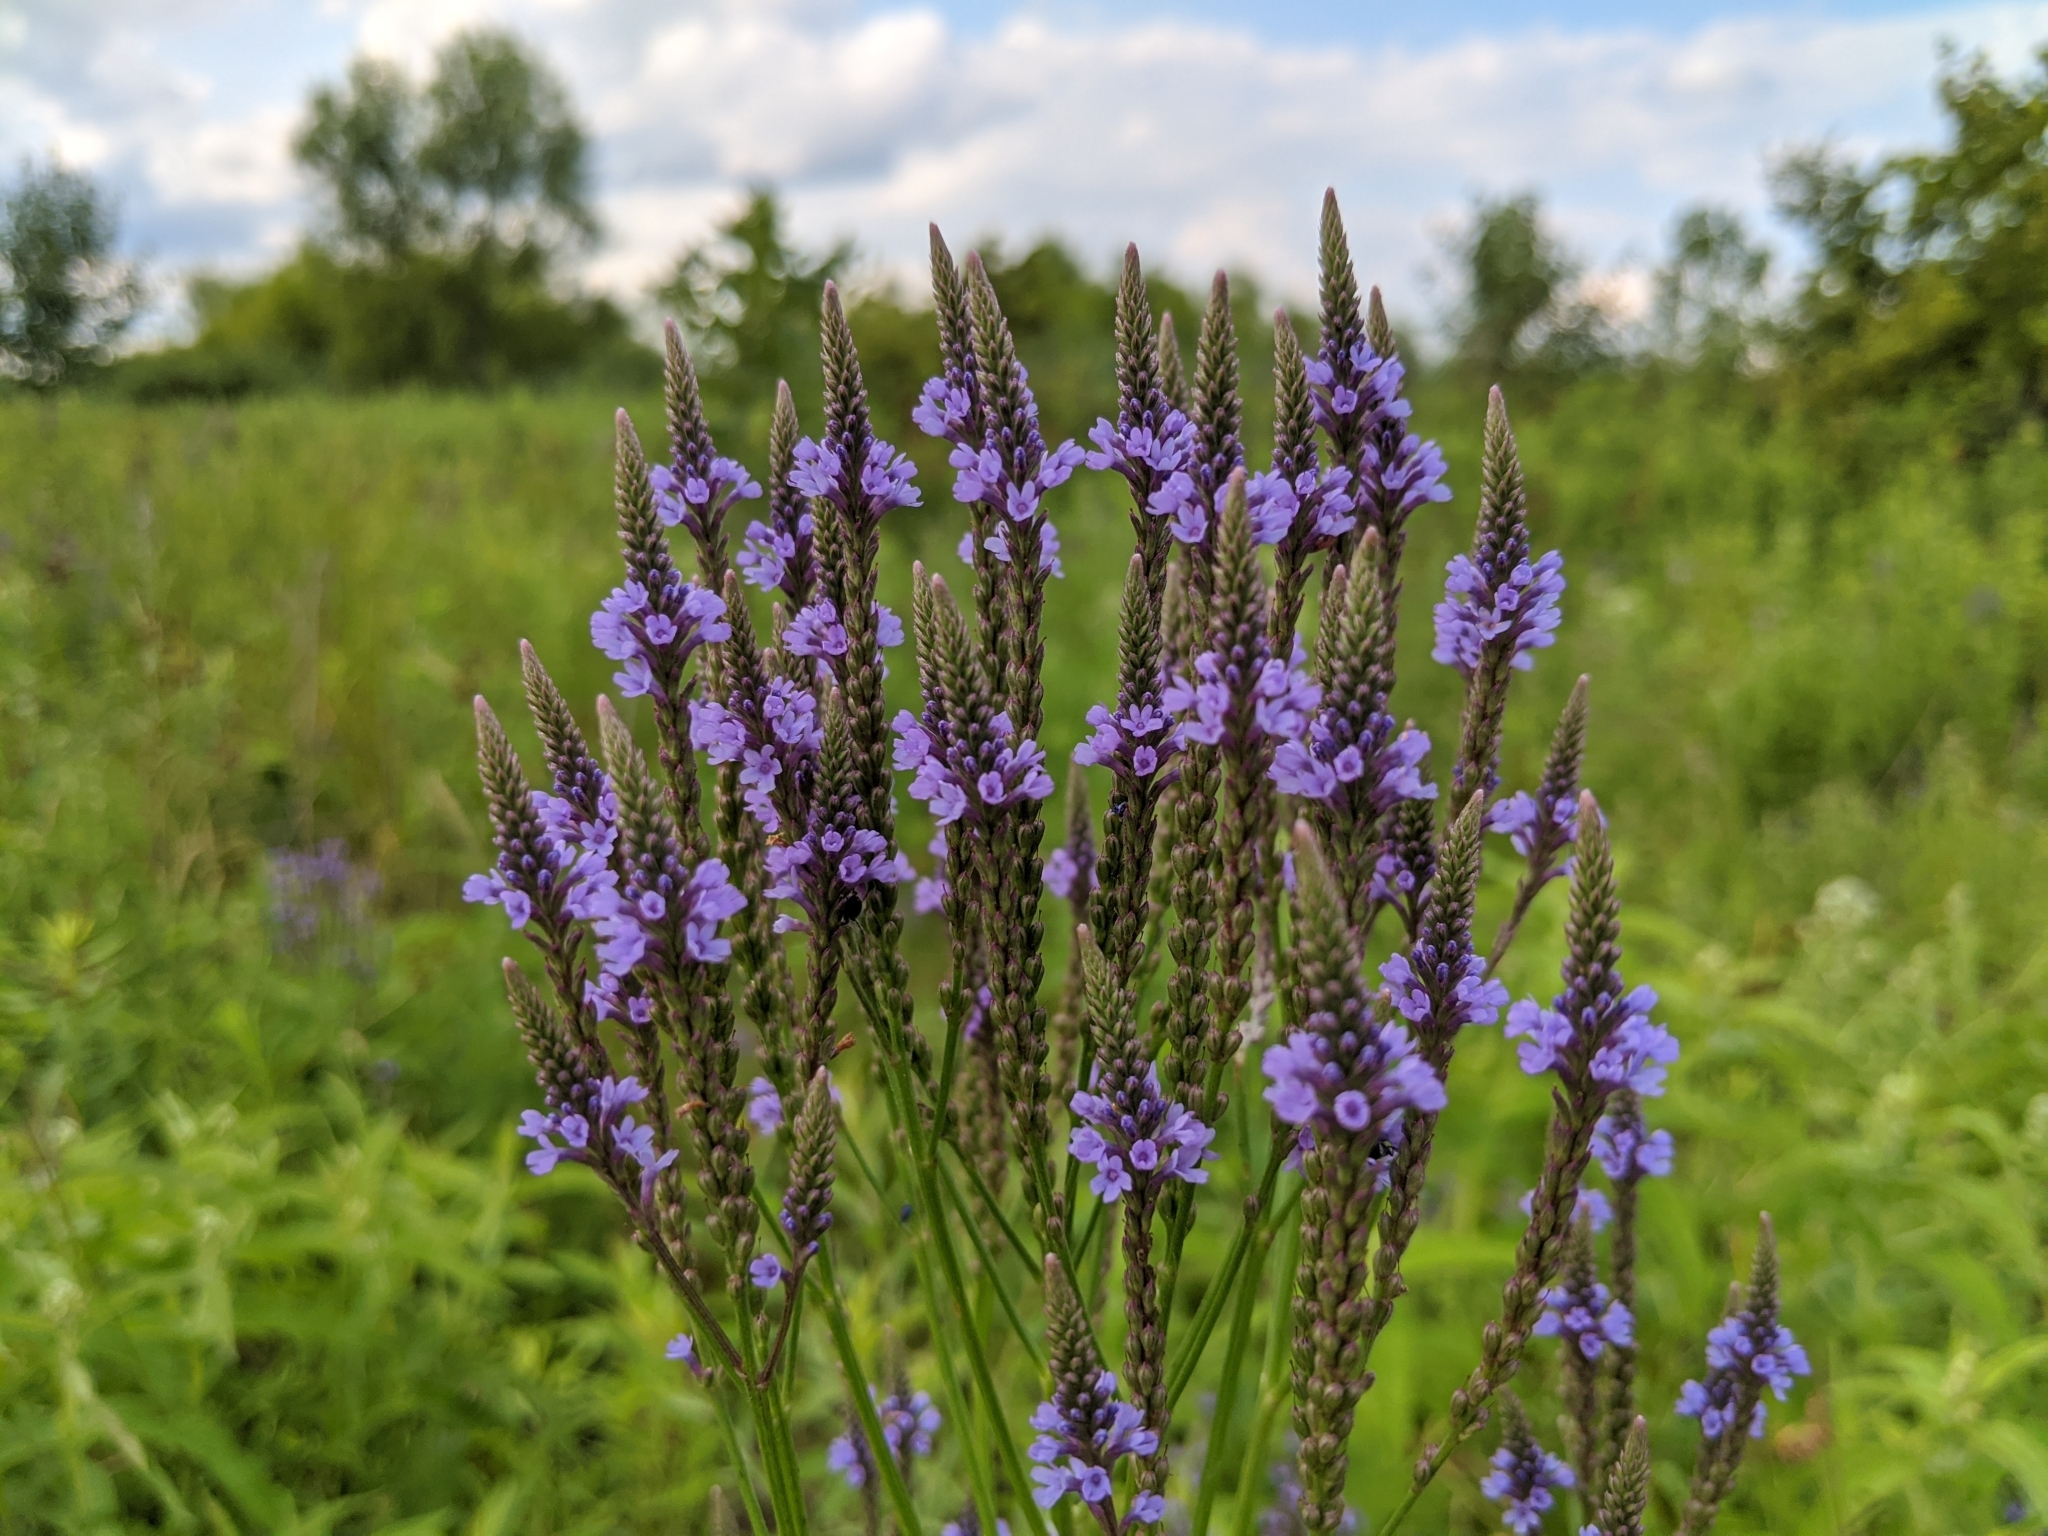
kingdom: Plantae
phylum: Tracheophyta
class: Magnoliopsida
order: Lamiales
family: Verbenaceae
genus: Verbena
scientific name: Verbena hastata
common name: American blue vervain
